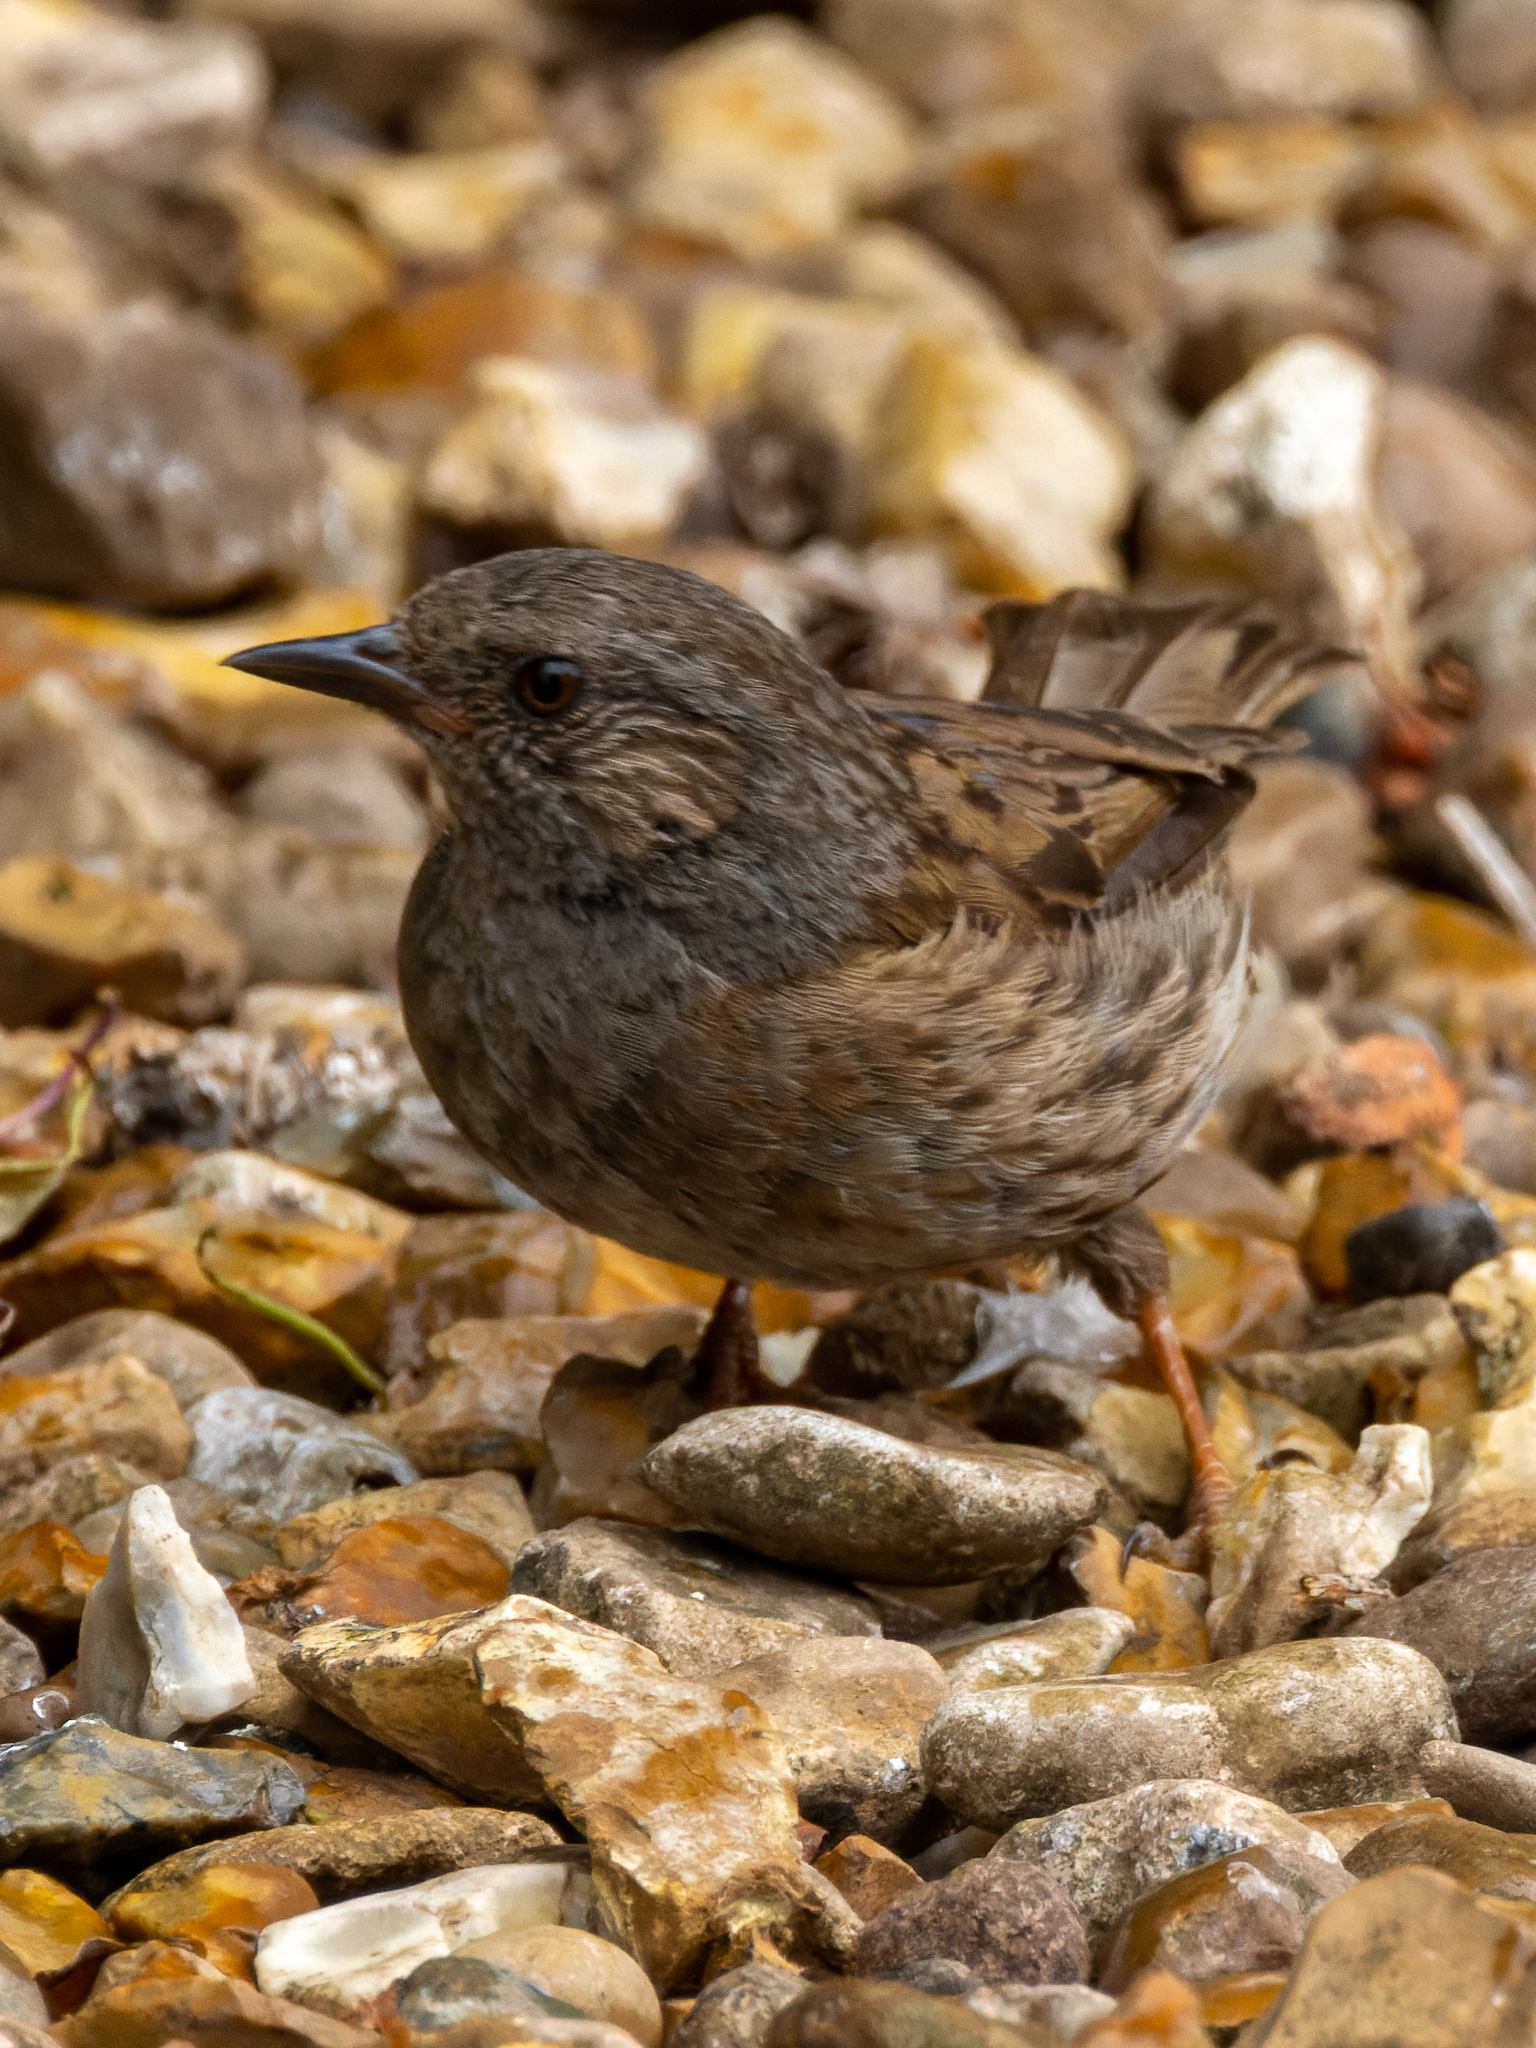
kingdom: Animalia
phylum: Chordata
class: Aves
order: Passeriformes
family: Prunellidae
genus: Prunella
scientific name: Prunella modularis
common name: Dunnock
